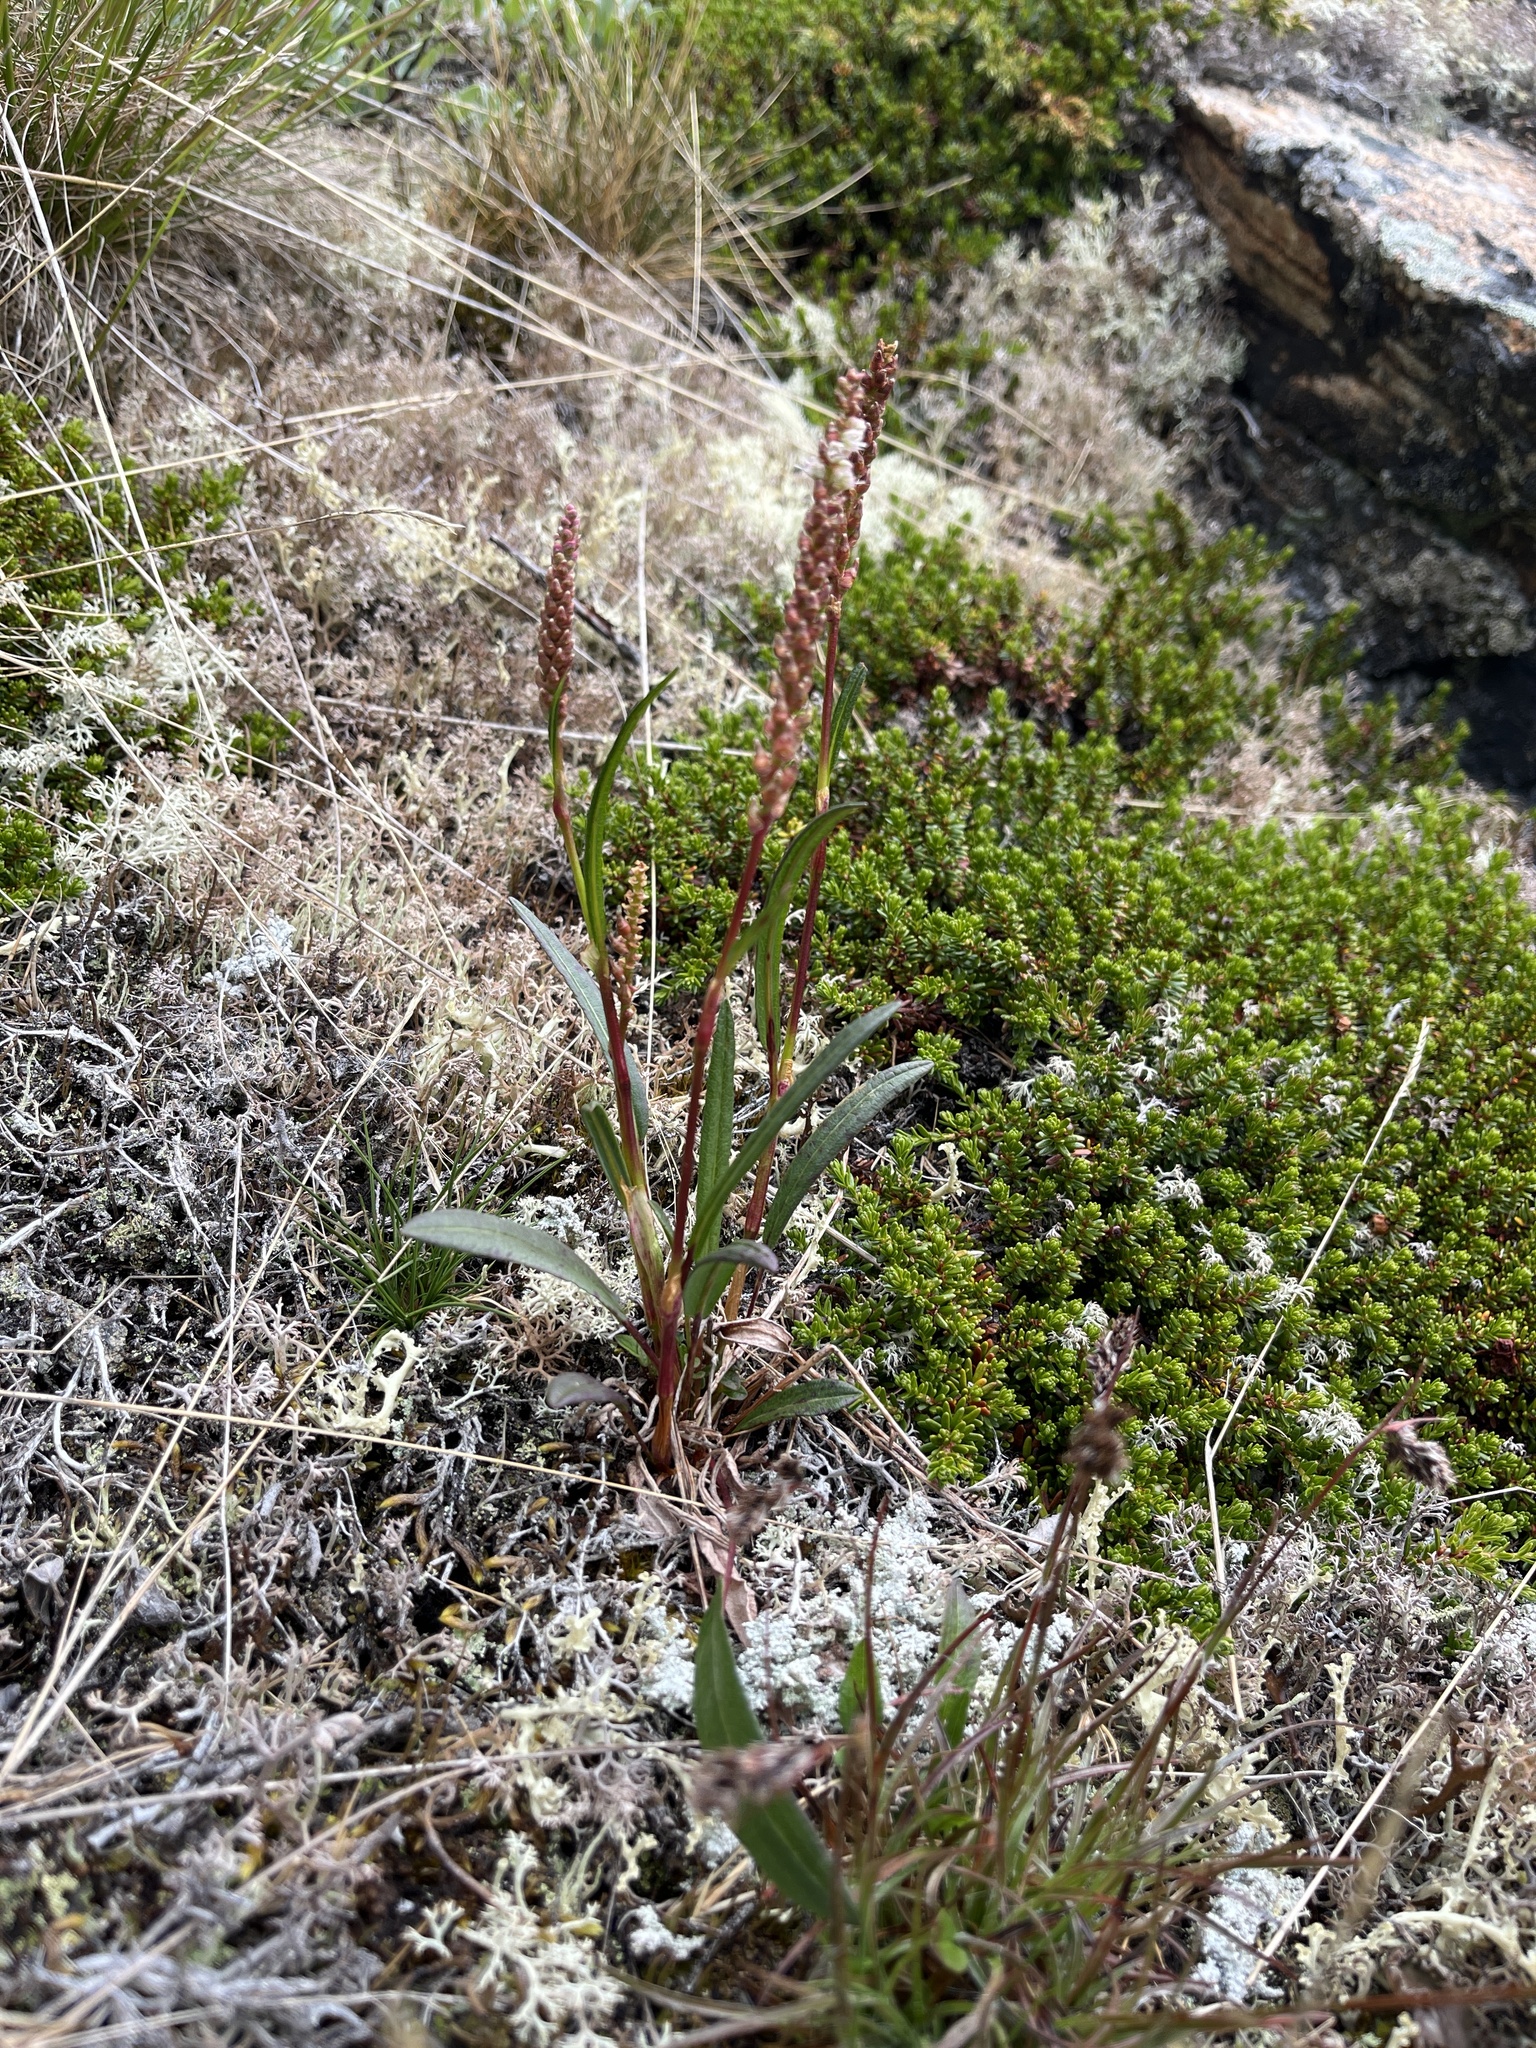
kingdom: Plantae
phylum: Tracheophyta
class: Magnoliopsida
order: Caryophyllales
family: Polygonaceae
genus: Bistorta
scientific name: Bistorta vivipara
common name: Alpine bistort
